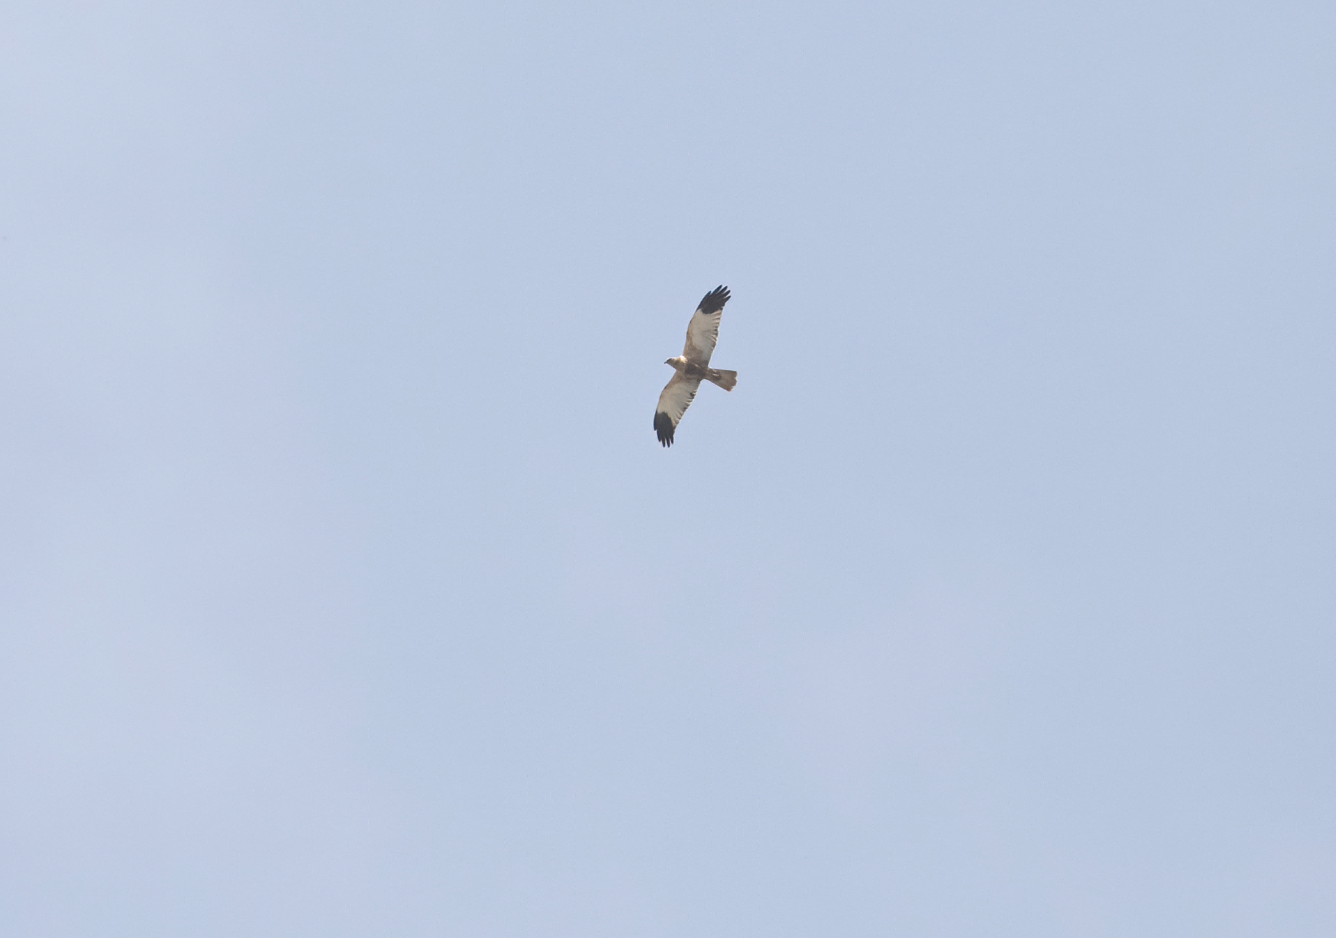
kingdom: Animalia
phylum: Chordata
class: Aves
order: Accipitriformes
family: Accipitridae
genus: Circus
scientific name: Circus aeruginosus
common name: Western marsh harrier
